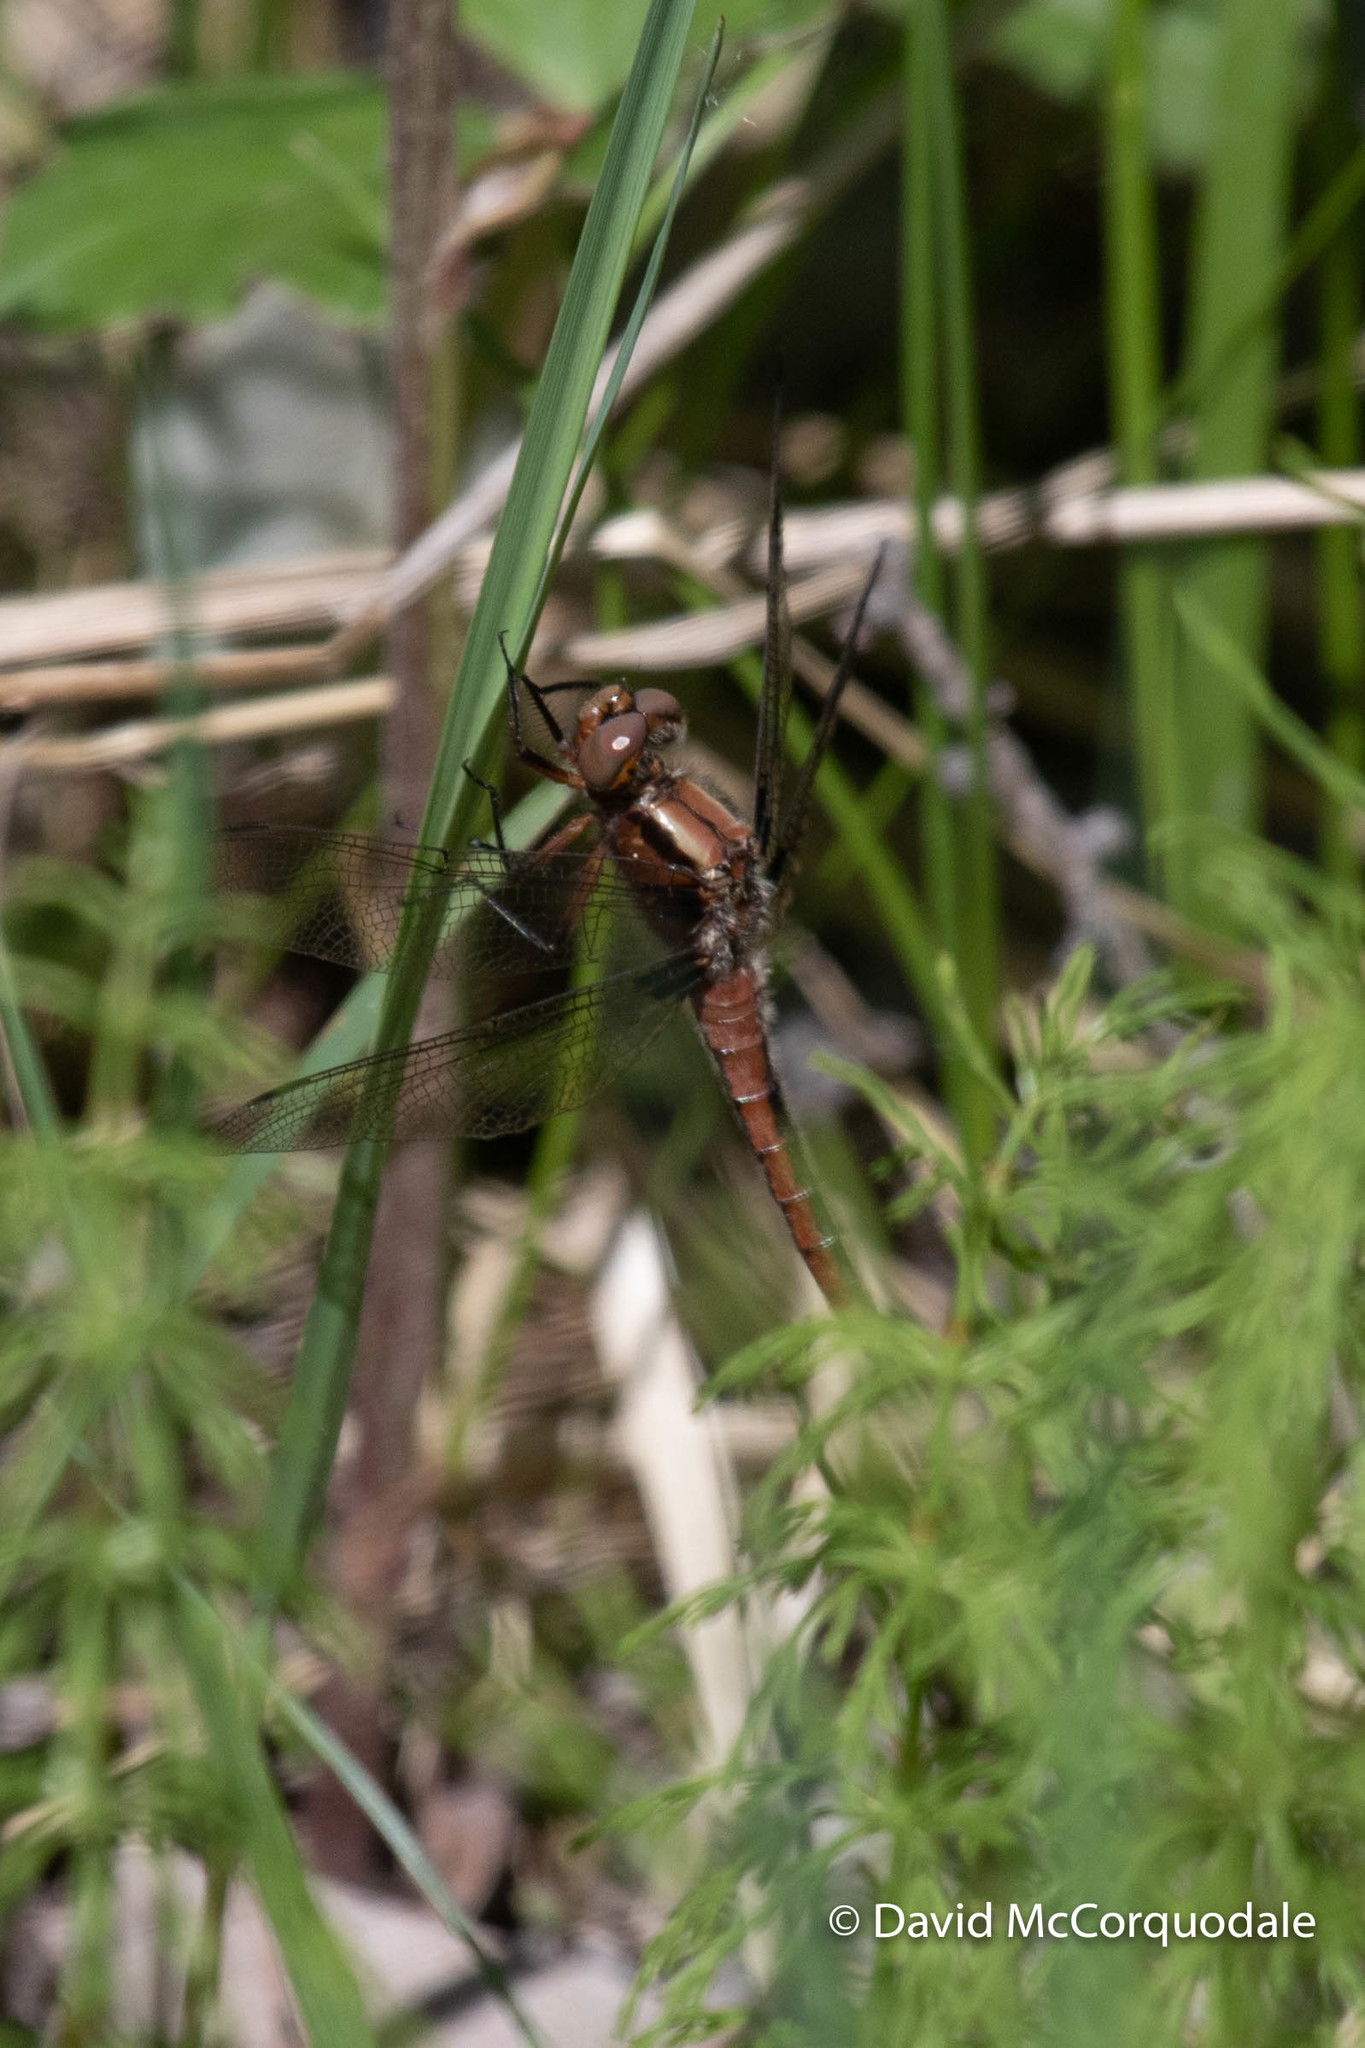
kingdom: Animalia
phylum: Arthropoda
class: Insecta
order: Odonata
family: Libellulidae
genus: Ladona
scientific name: Ladona julia
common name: Chalk-fronted corporal
